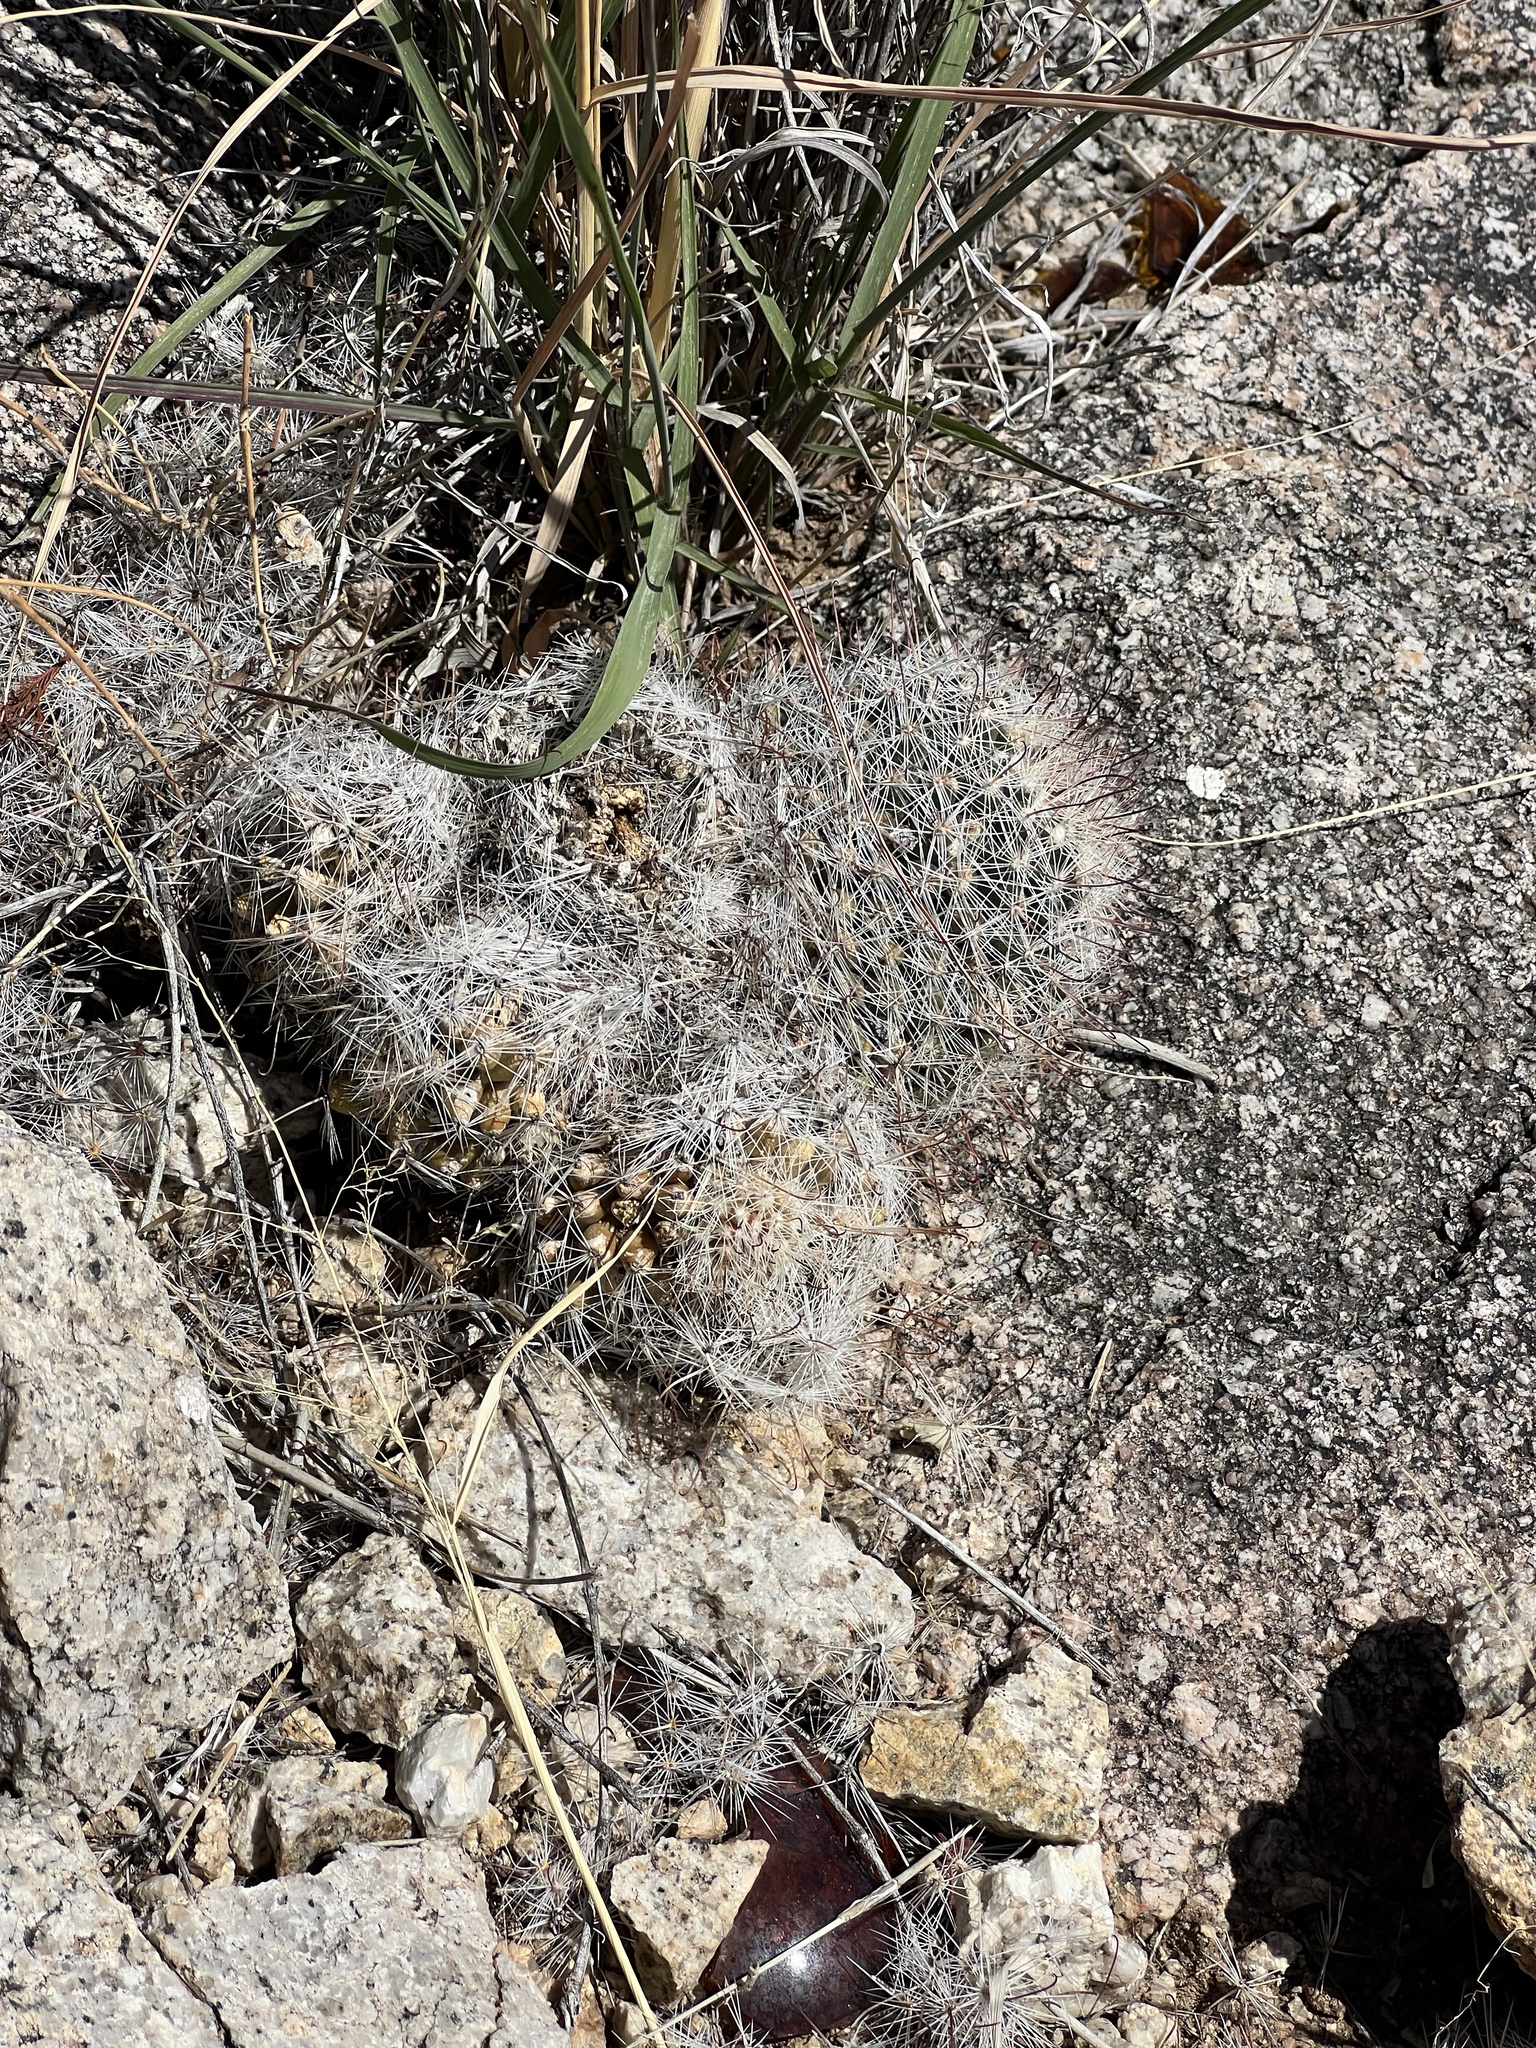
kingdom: Plantae
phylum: Tracheophyta
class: Magnoliopsida
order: Caryophyllales
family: Cactaceae
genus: Cochemiea
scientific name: Cochemiea grahamii
